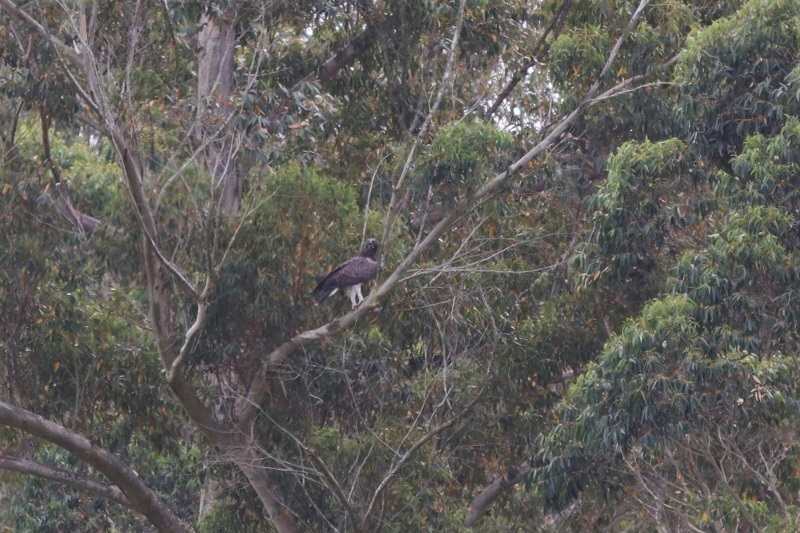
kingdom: Animalia
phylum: Chordata
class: Aves
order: Accipitriformes
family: Accipitridae
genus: Polemaetus
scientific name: Polemaetus bellicosus
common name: Martial eagle
